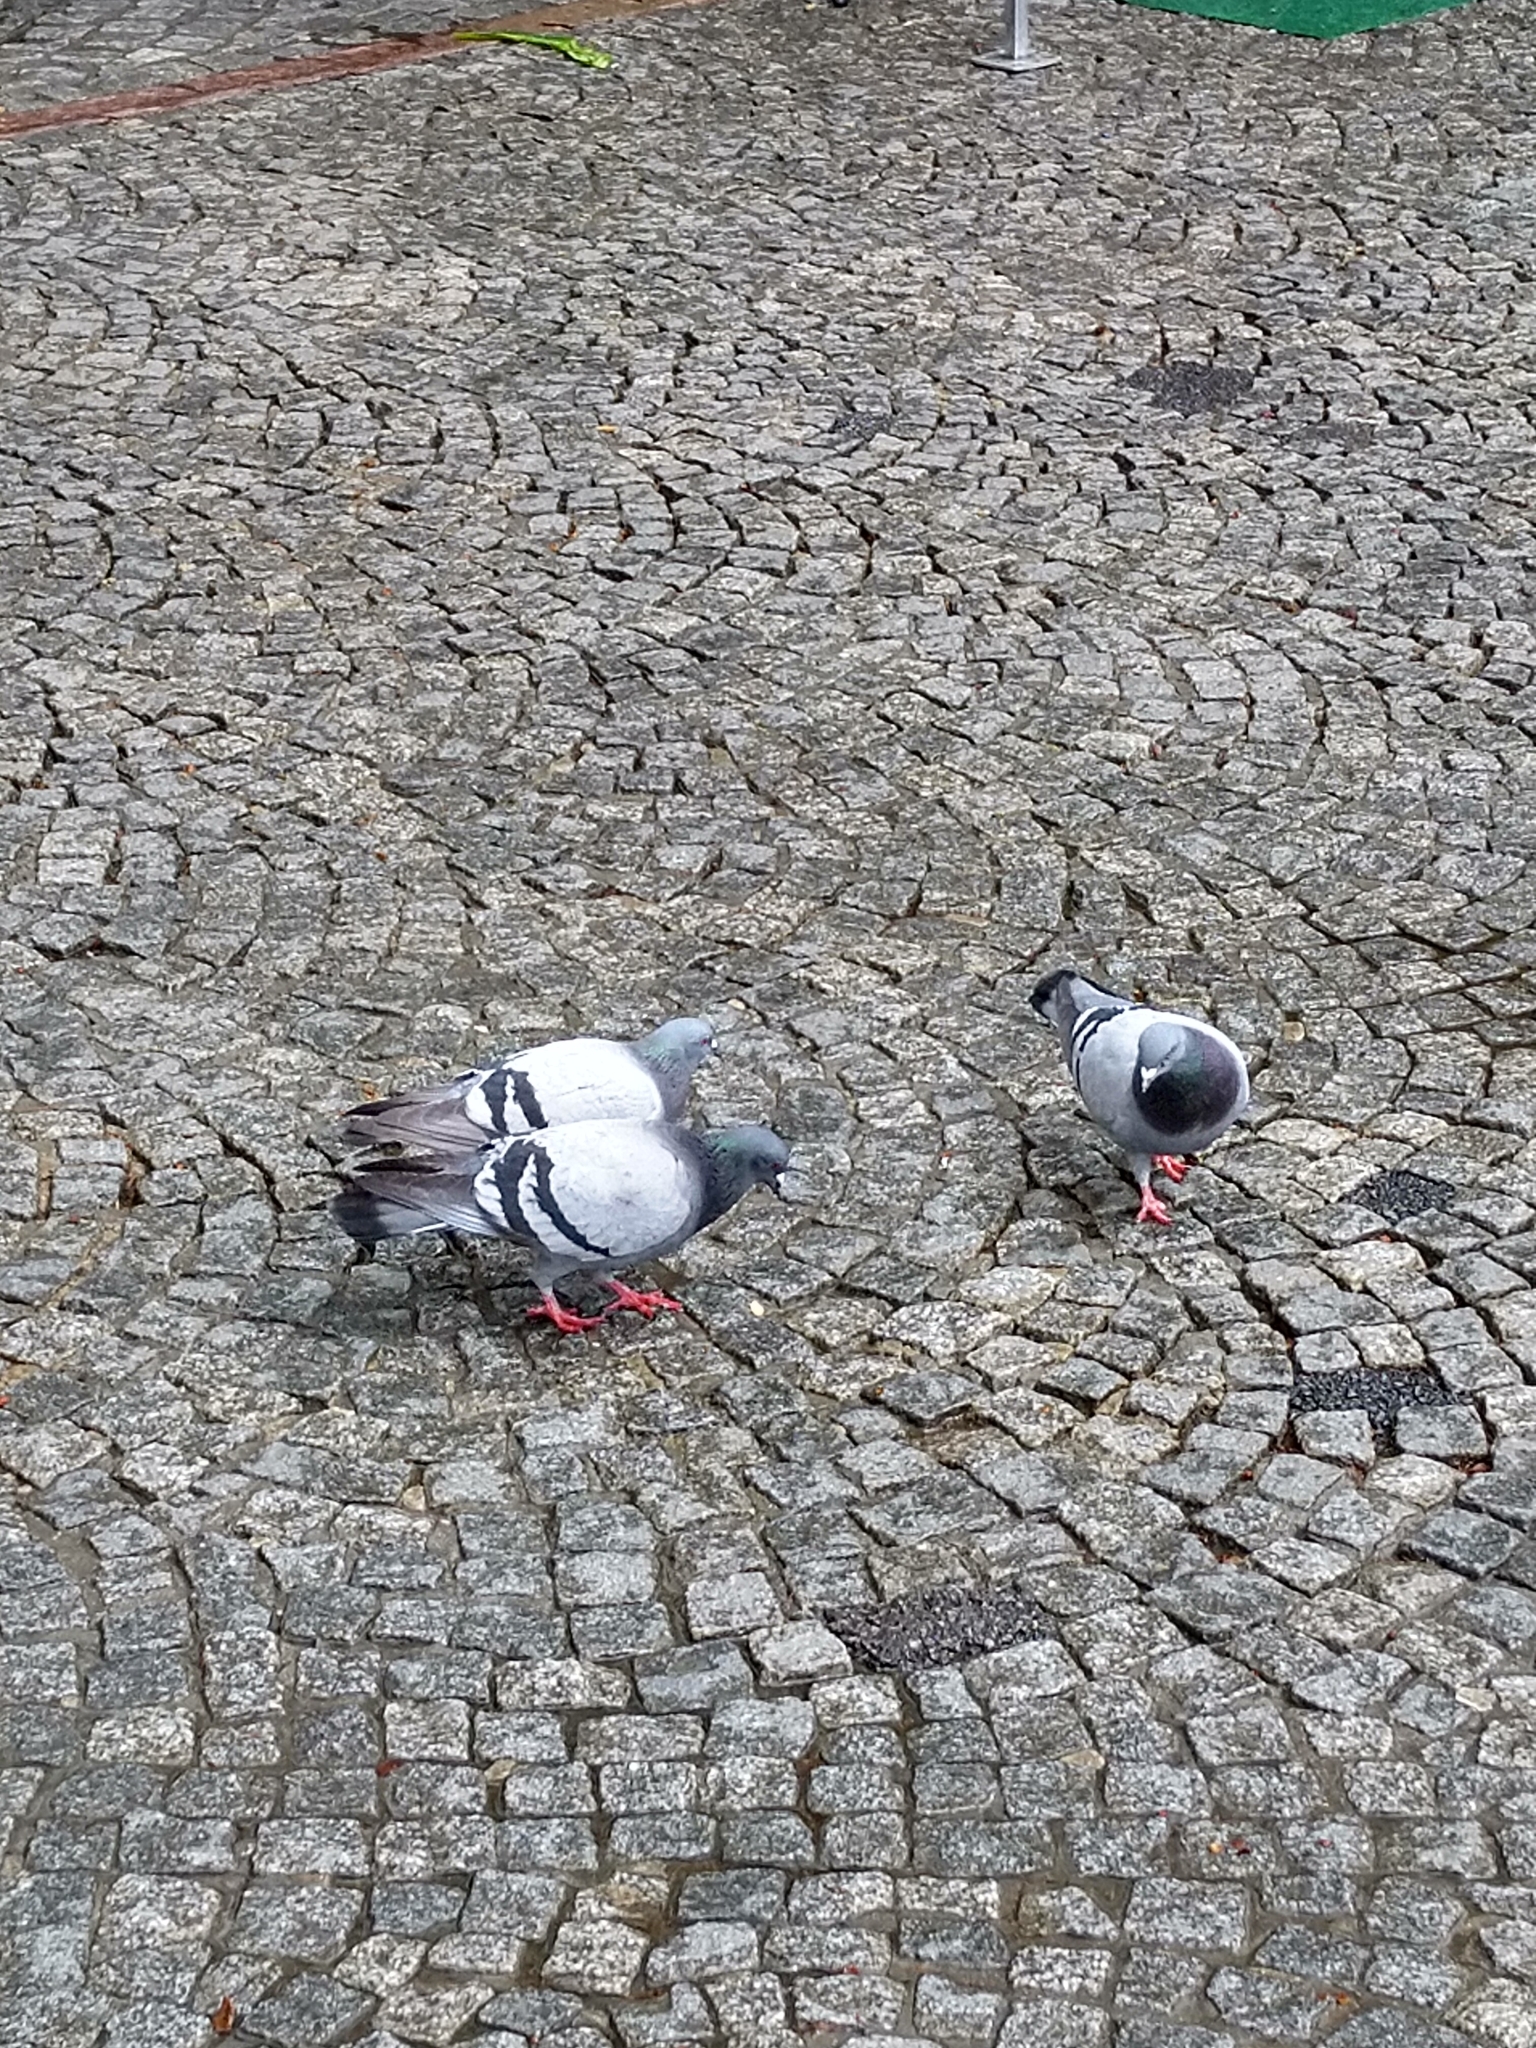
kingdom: Animalia
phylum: Chordata
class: Aves
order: Columbiformes
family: Columbidae
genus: Columba
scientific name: Columba livia
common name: Rock pigeon
